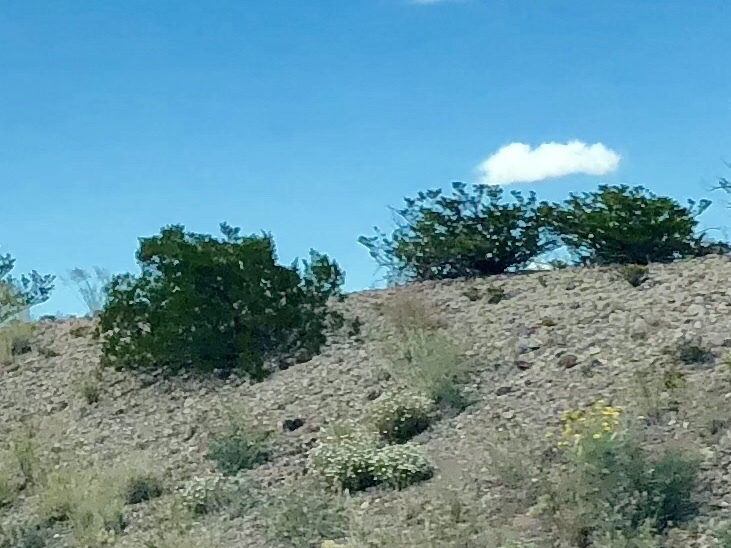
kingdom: Plantae
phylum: Tracheophyta
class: Magnoliopsida
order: Zygophyllales
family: Zygophyllaceae
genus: Larrea
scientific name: Larrea tridentata
